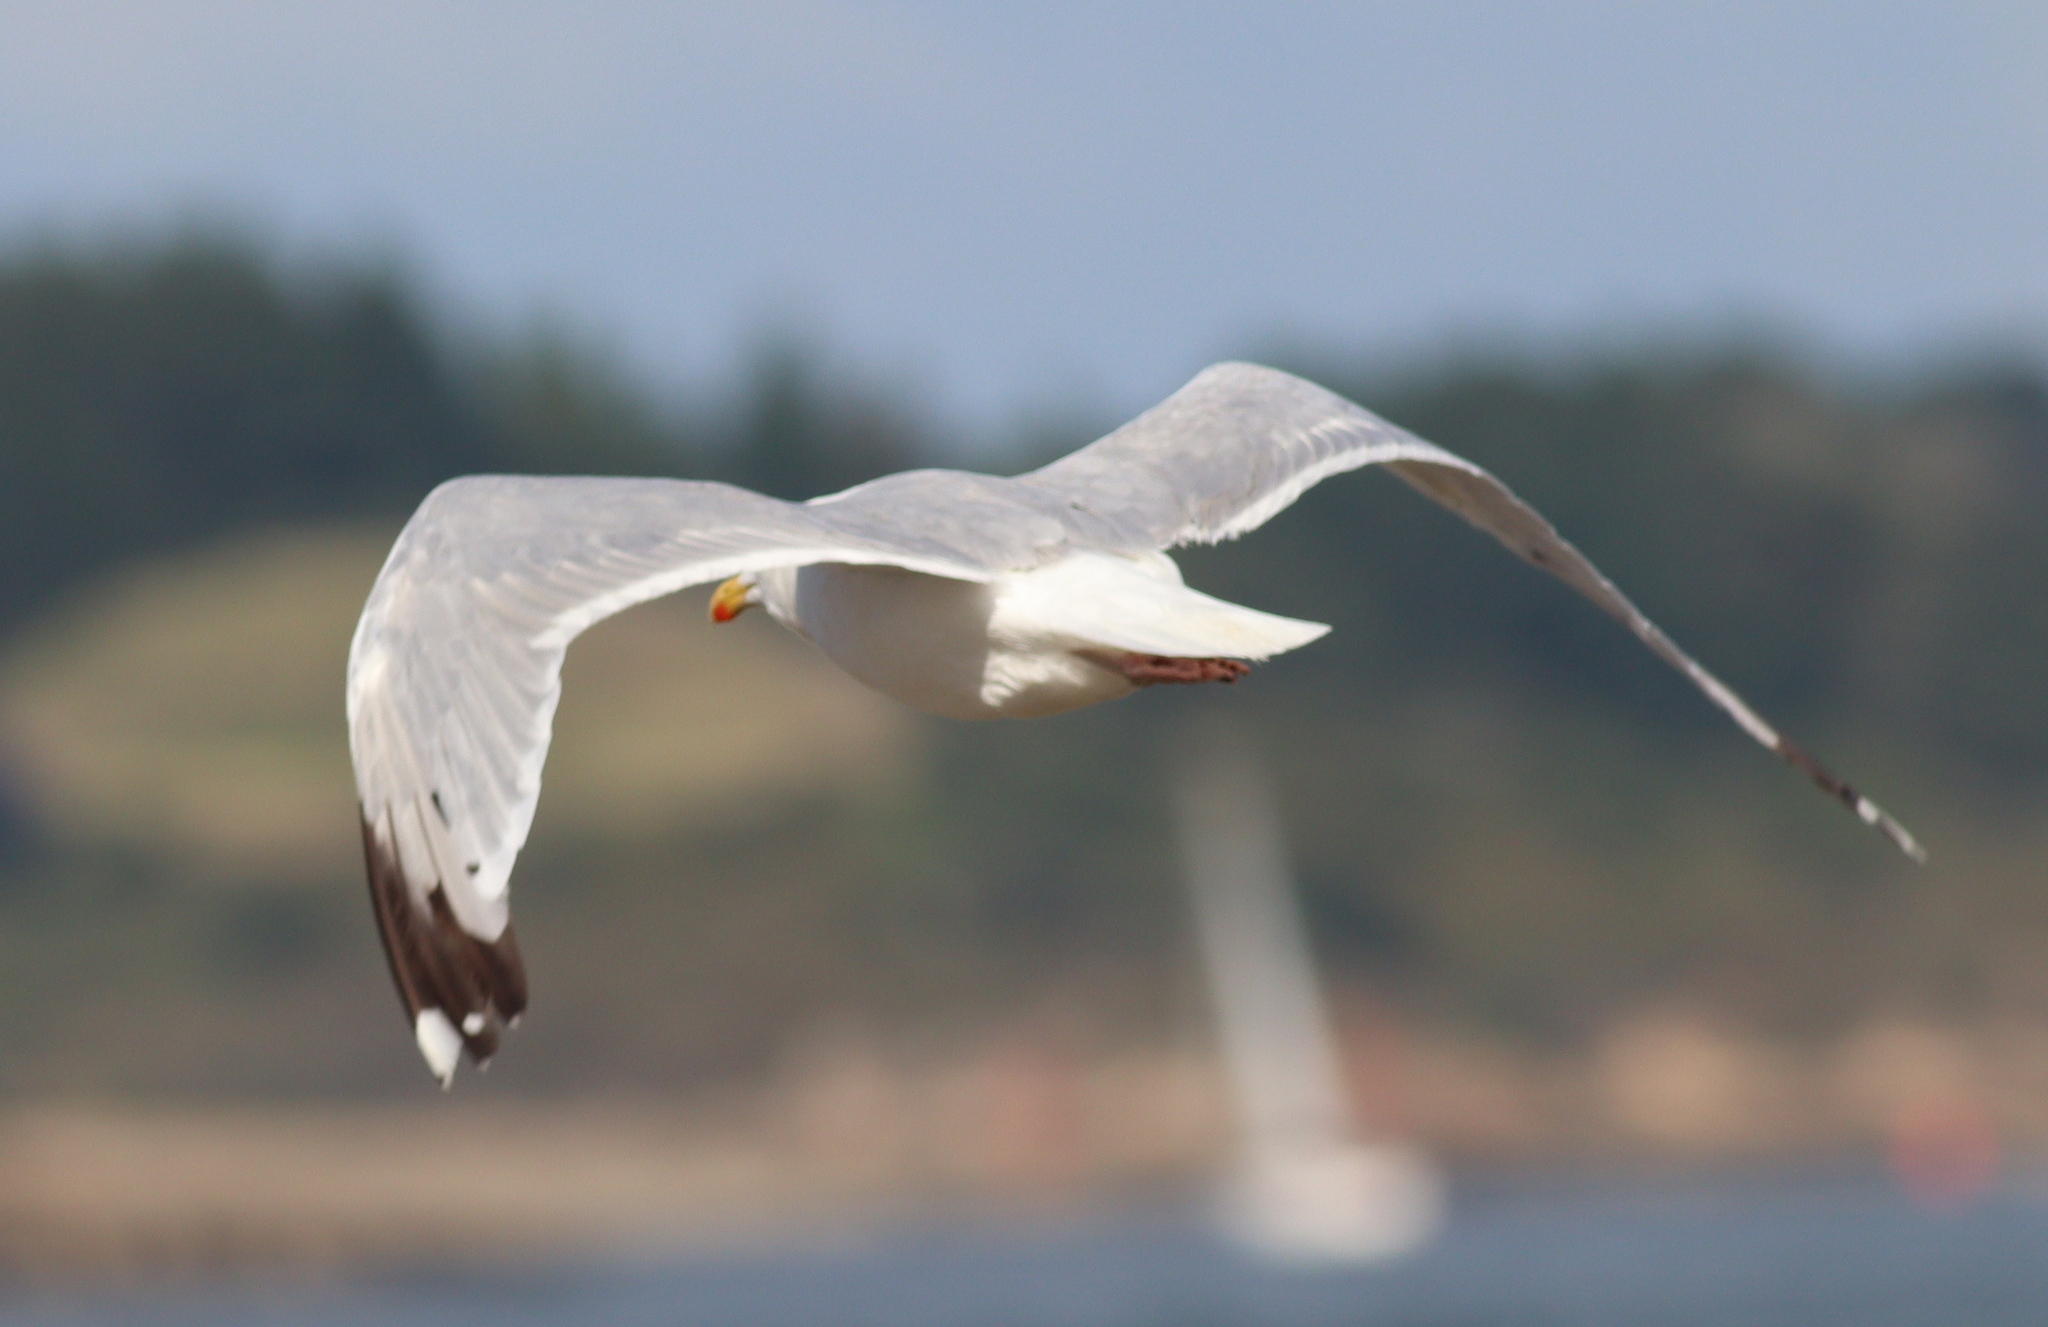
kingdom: Animalia
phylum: Chordata
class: Aves
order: Charadriiformes
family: Laridae
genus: Larus
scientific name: Larus argentatus
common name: Herring gull
